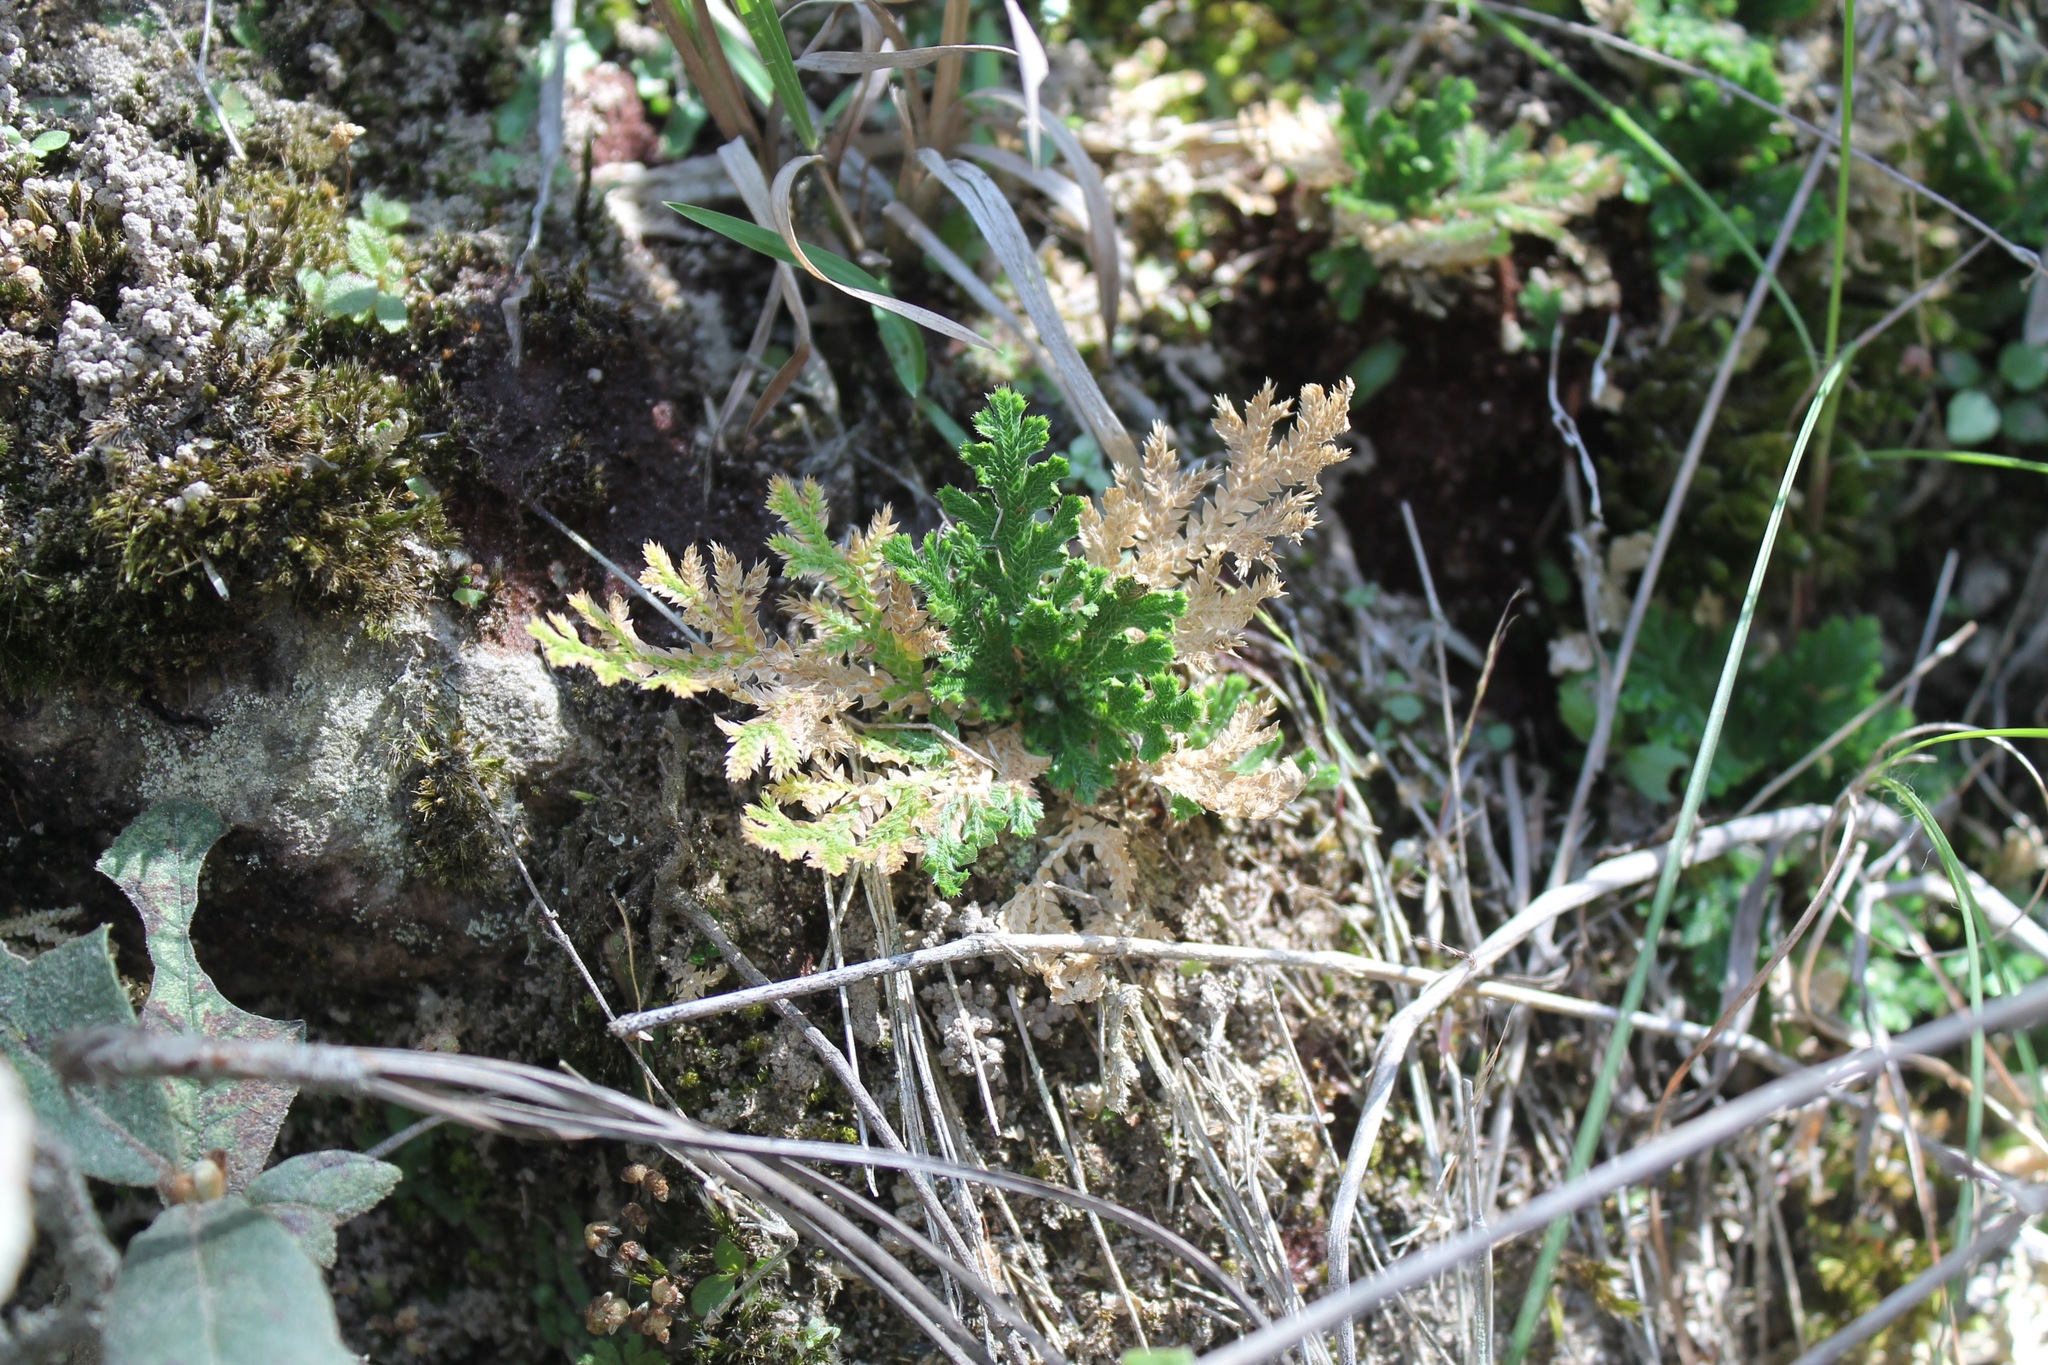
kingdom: Plantae
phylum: Tracheophyta
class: Lycopodiopsida
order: Selaginellales
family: Selaginellaceae
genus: Selaginella
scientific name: Selaginella pallescens
